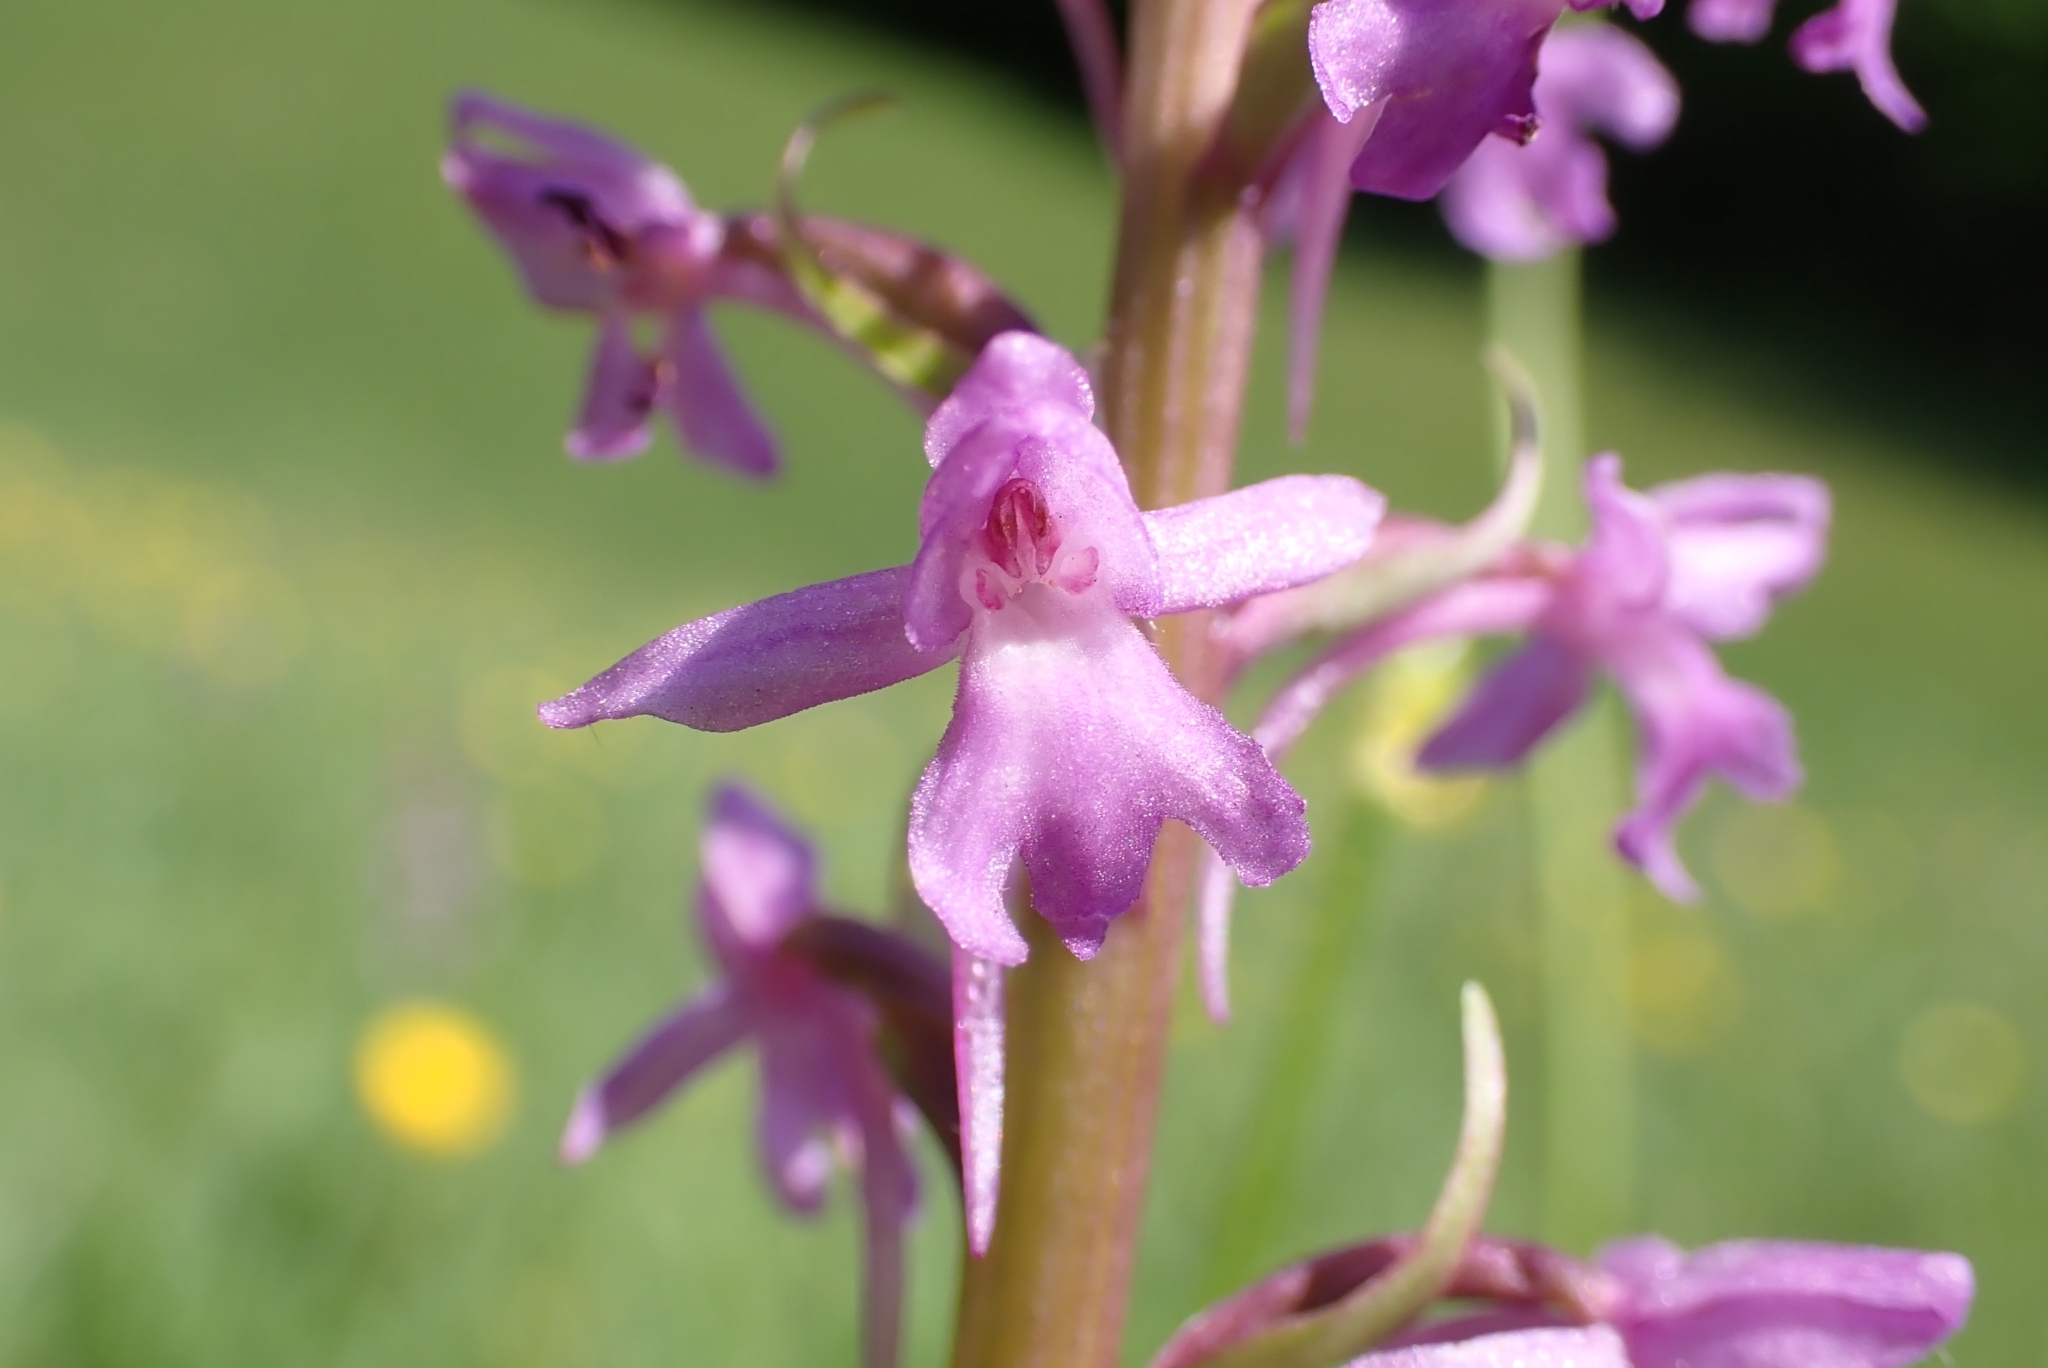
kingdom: Plantae
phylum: Tracheophyta
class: Liliopsida
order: Asparagales
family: Orchidaceae
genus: Gymnadenia
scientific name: Gymnadenia conopsea
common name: Fragrant orchid
